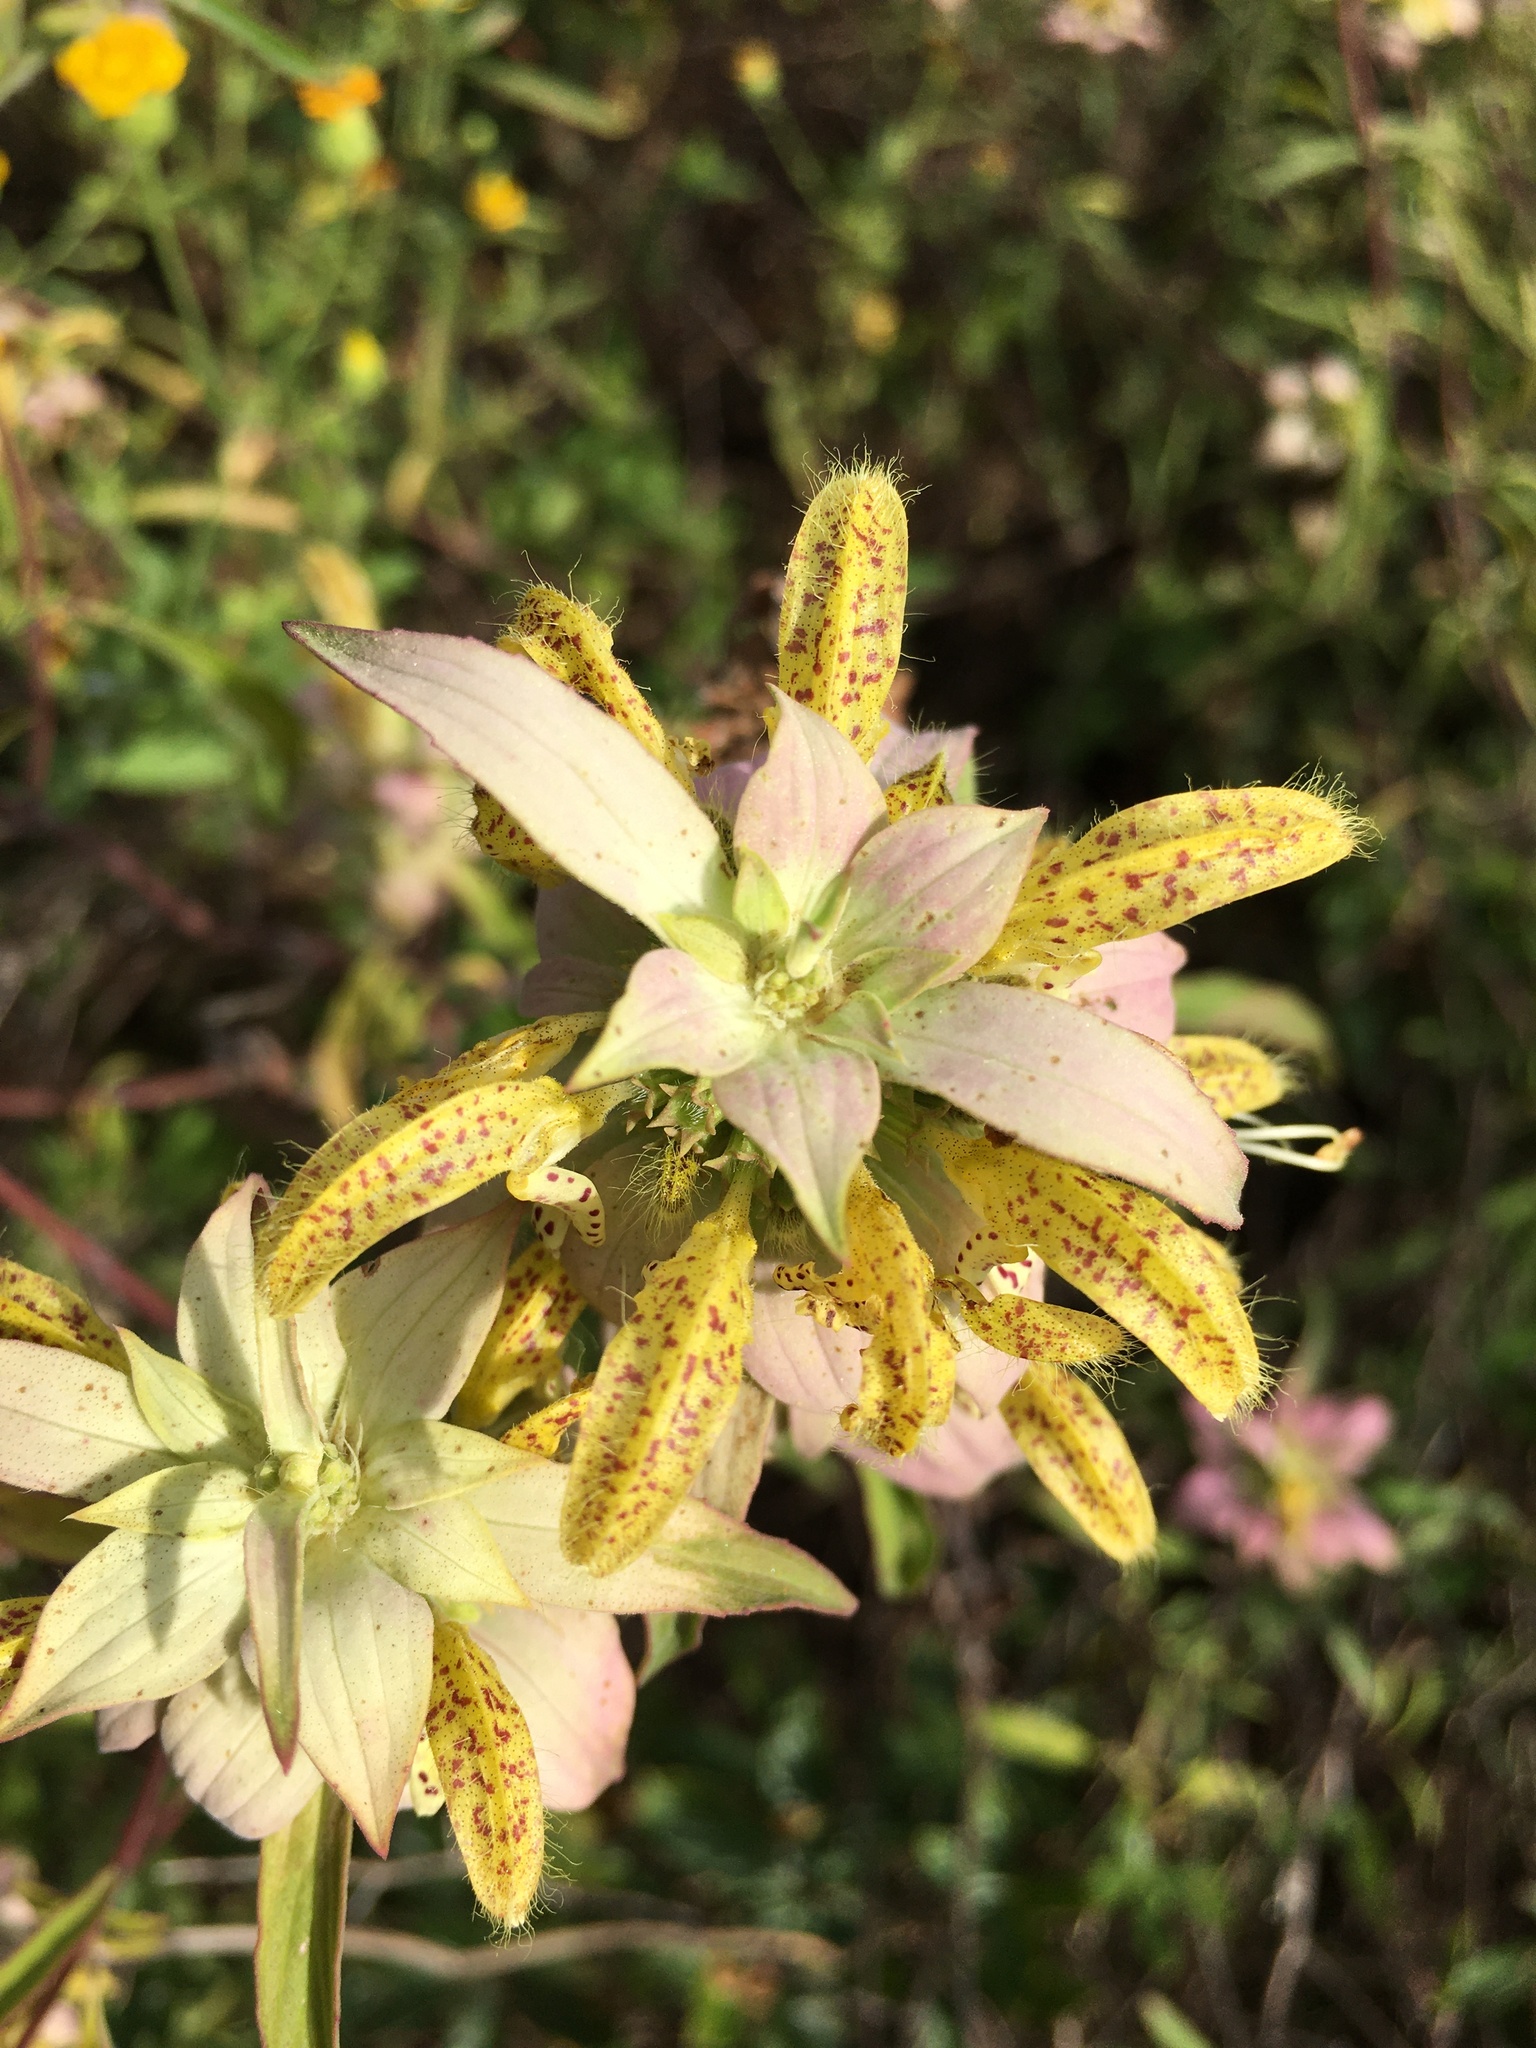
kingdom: Plantae
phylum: Tracheophyta
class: Magnoliopsida
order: Lamiales
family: Lamiaceae
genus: Monarda
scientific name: Monarda punctata
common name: Dotted monarda
